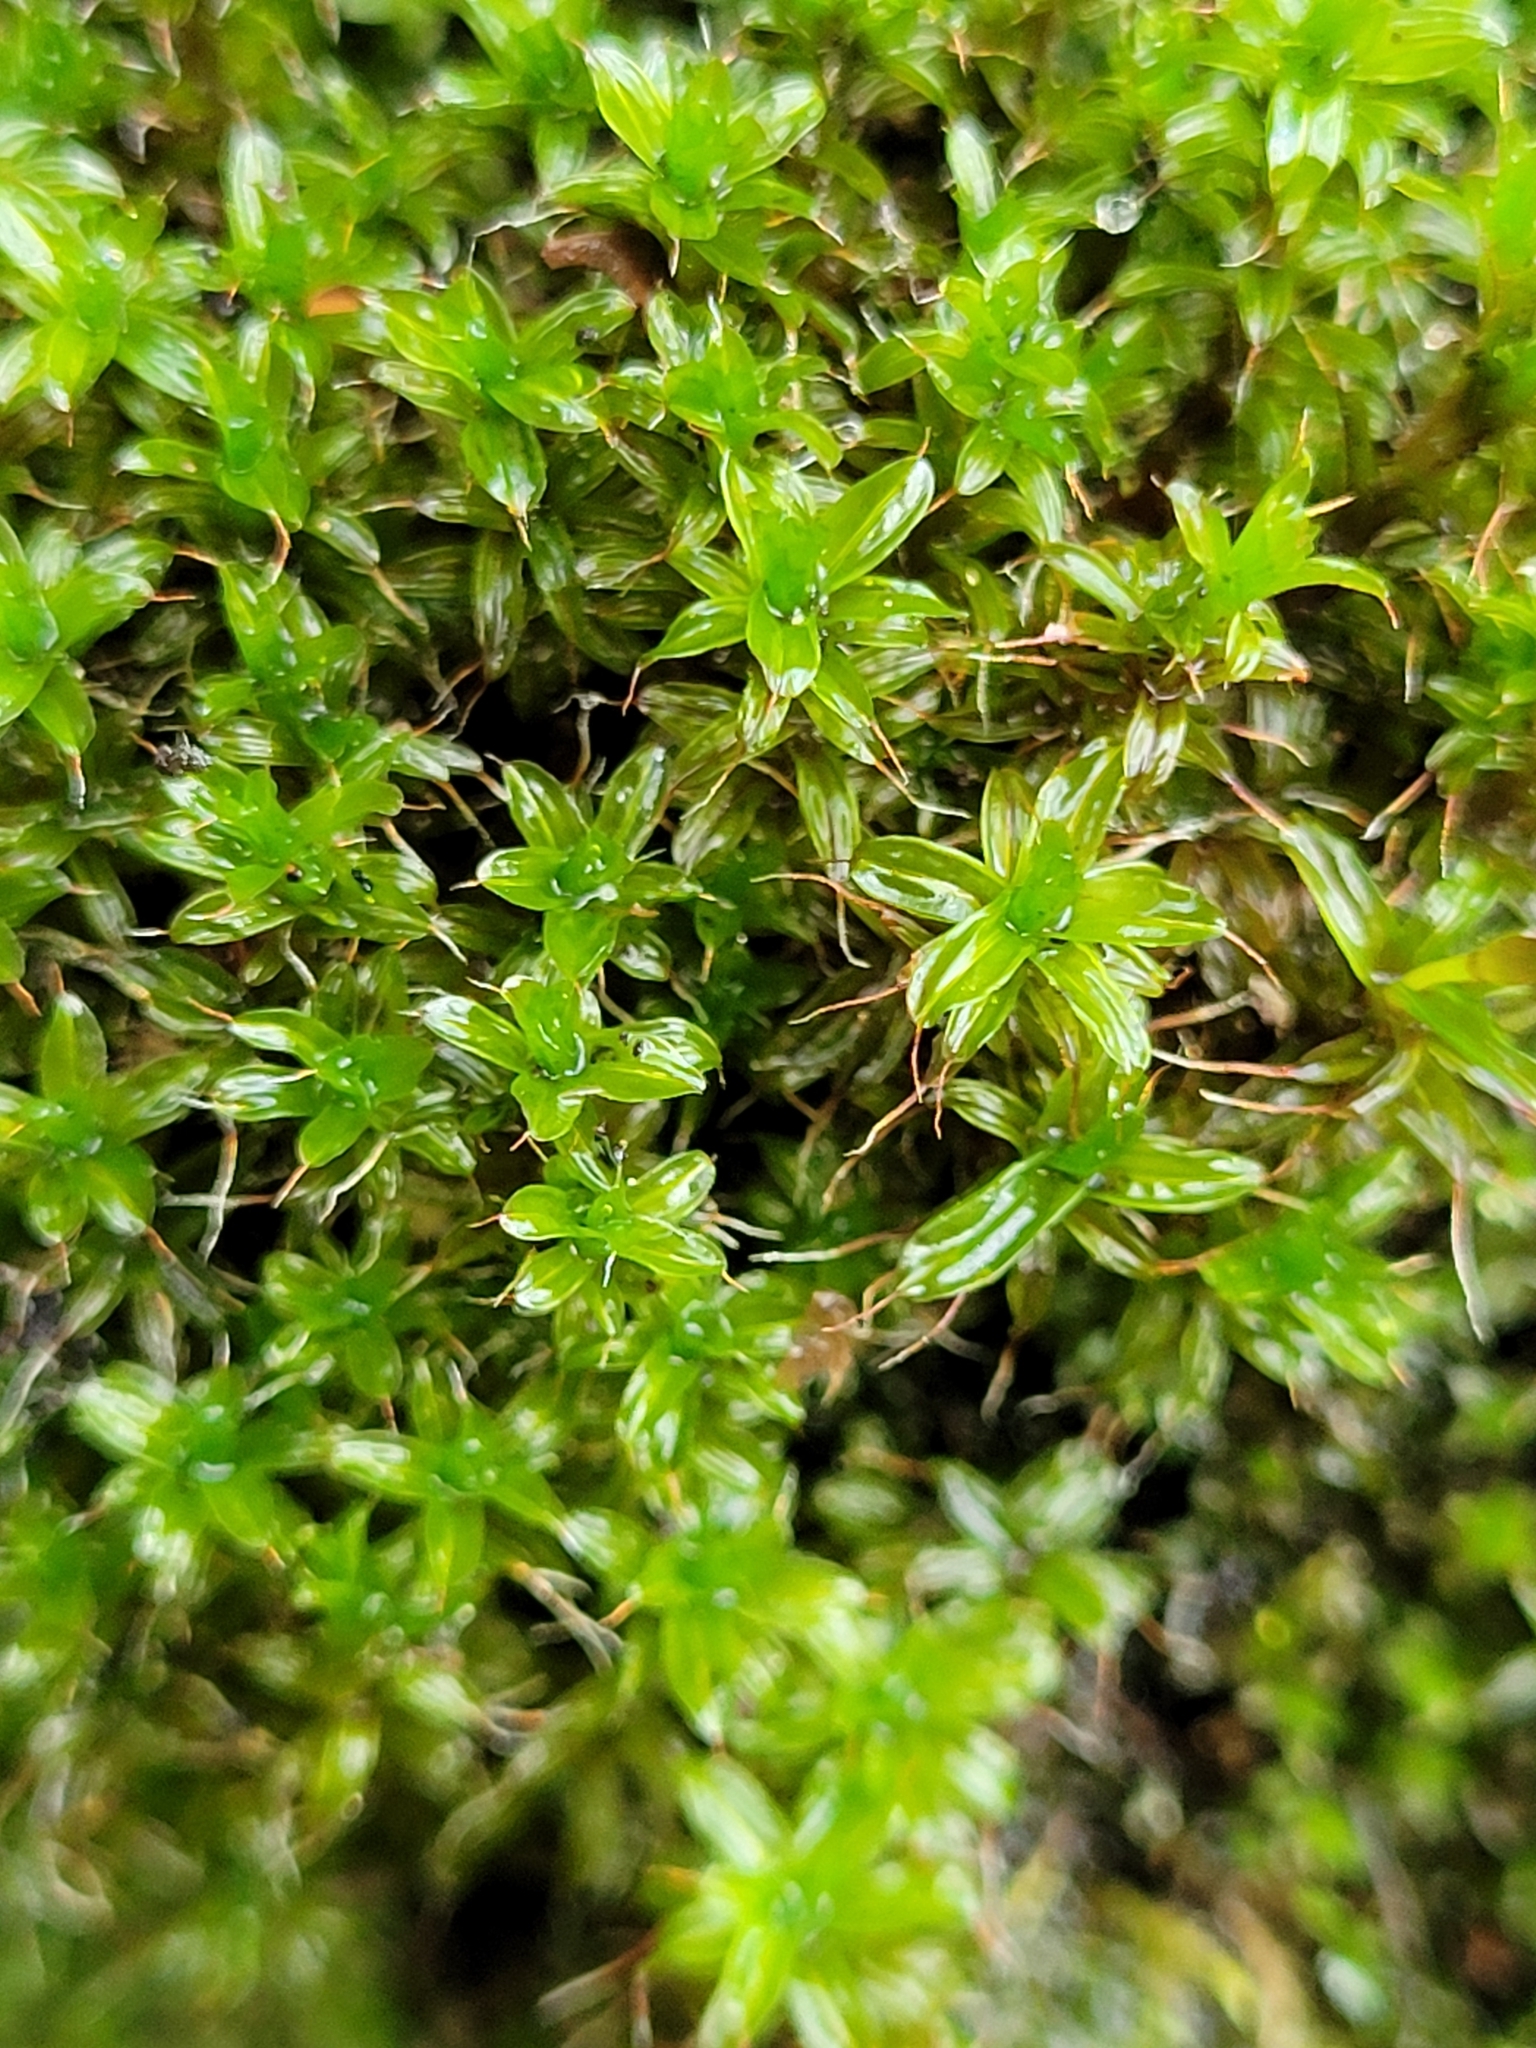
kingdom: Plantae
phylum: Bryophyta
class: Bryopsida
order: Pottiales
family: Pottiaceae
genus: Syntrichia
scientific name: Syntrichia ruralis
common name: Sidewalk screw moss
